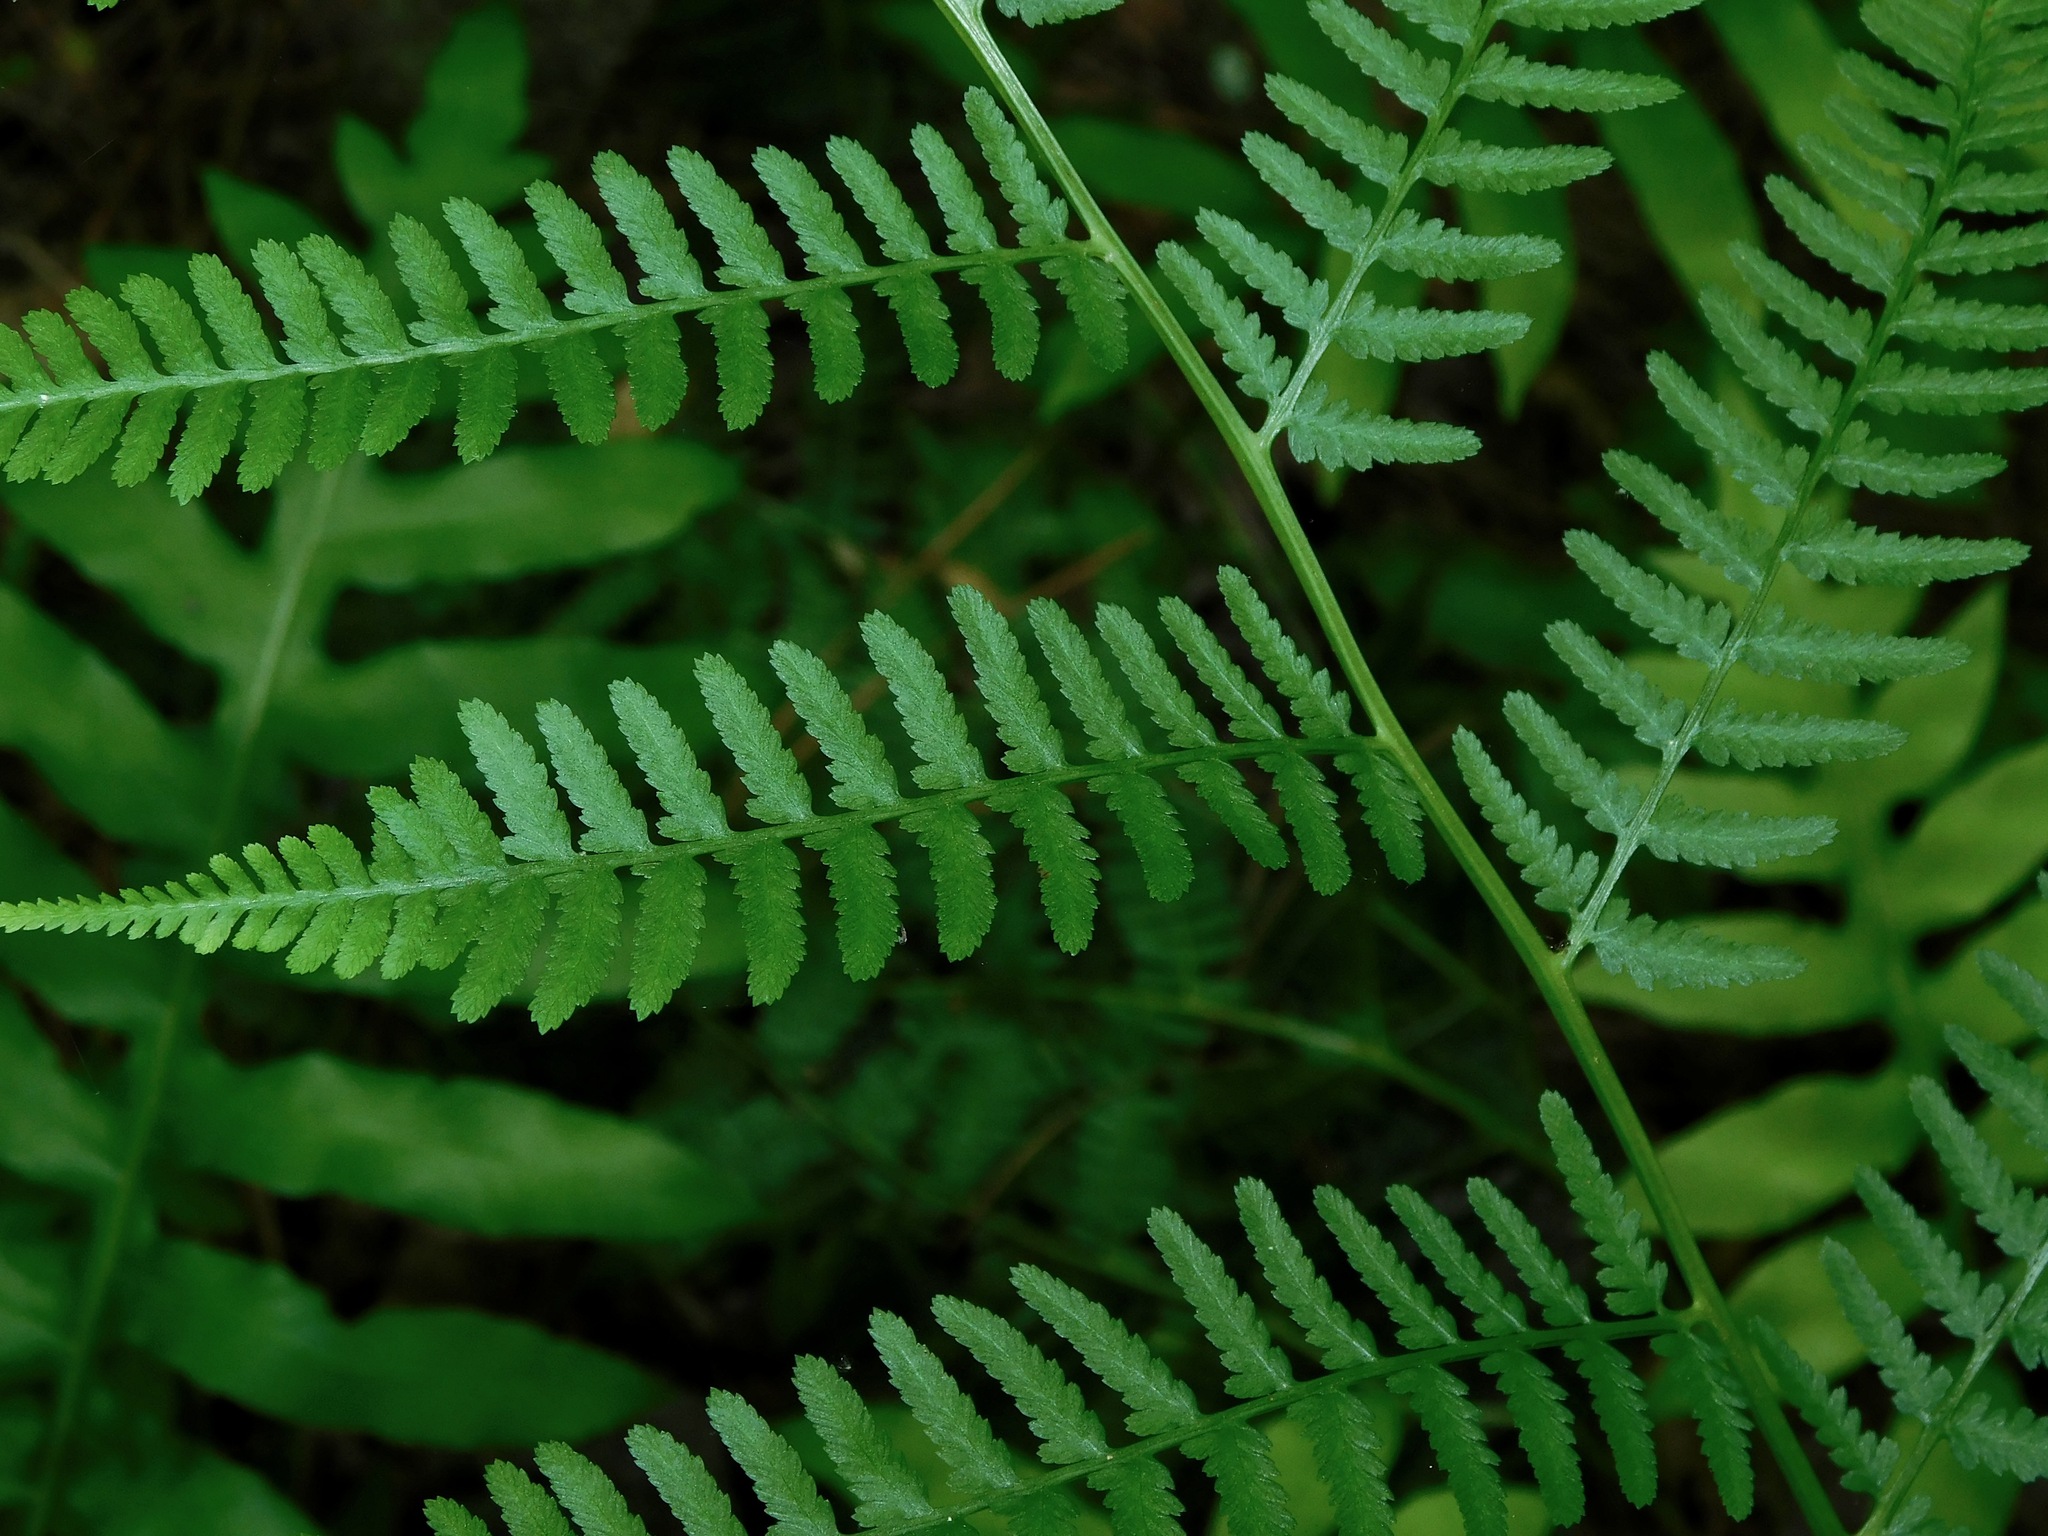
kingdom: Plantae
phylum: Tracheophyta
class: Polypodiopsida
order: Polypodiales
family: Athyriaceae
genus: Athyrium
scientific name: Athyrium asplenioides
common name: Southern lady fern
